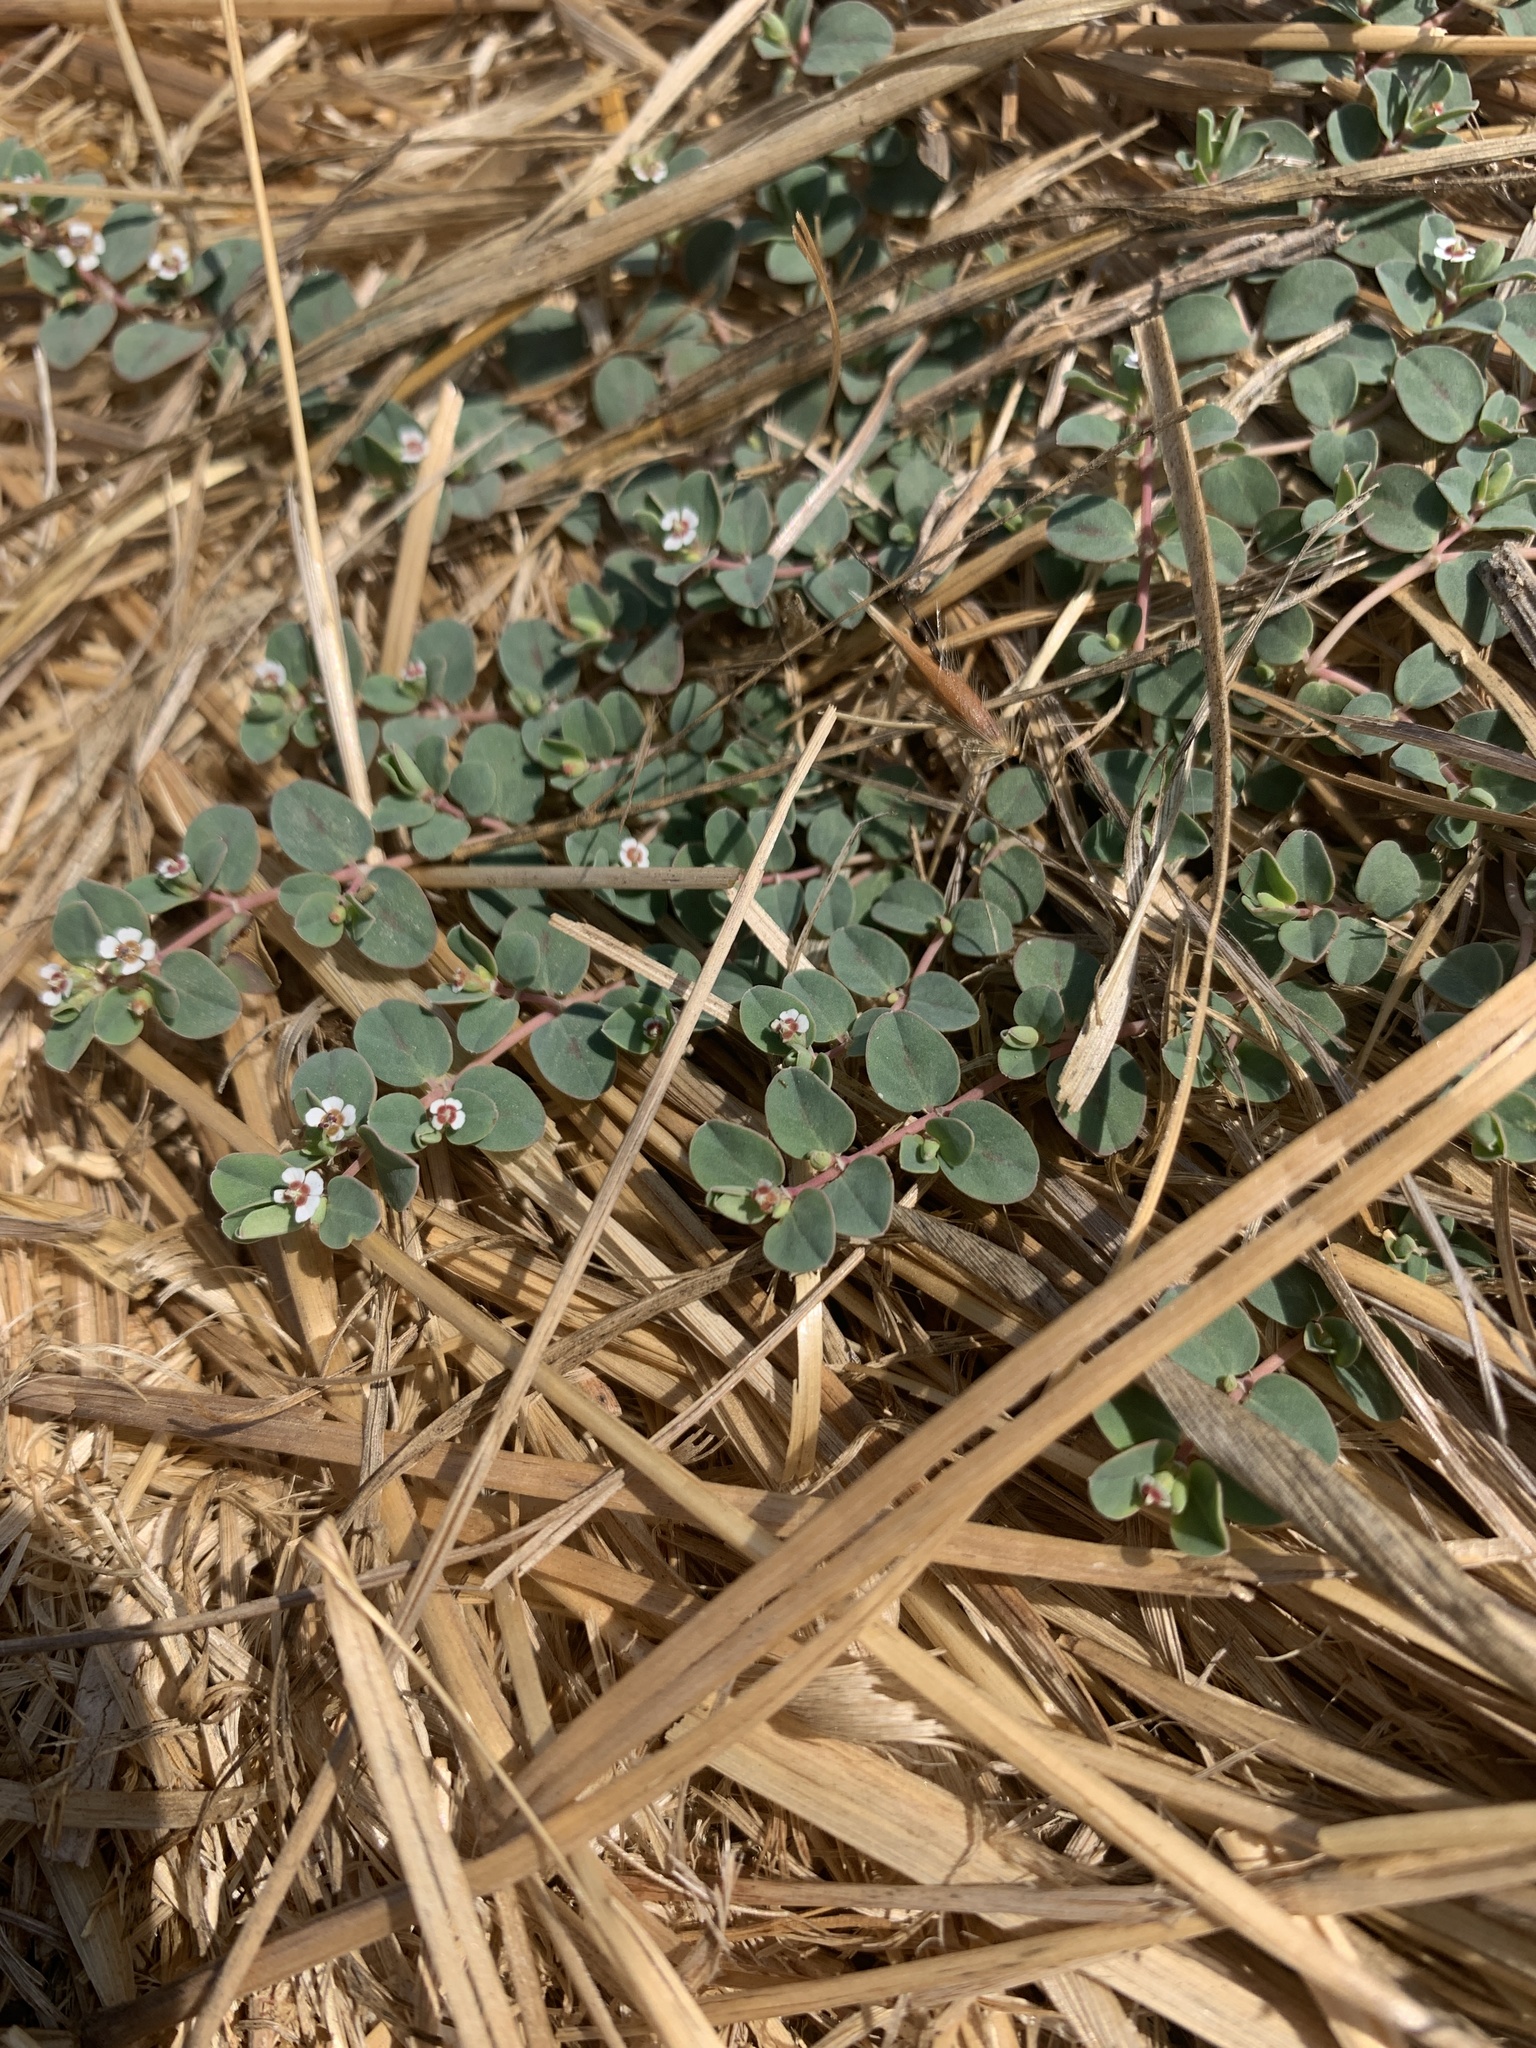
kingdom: Plantae
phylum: Tracheophyta
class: Magnoliopsida
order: Malpighiales
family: Euphorbiaceae
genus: Euphorbia
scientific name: Euphorbia albomarginata
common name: Whitemargin sandmat
